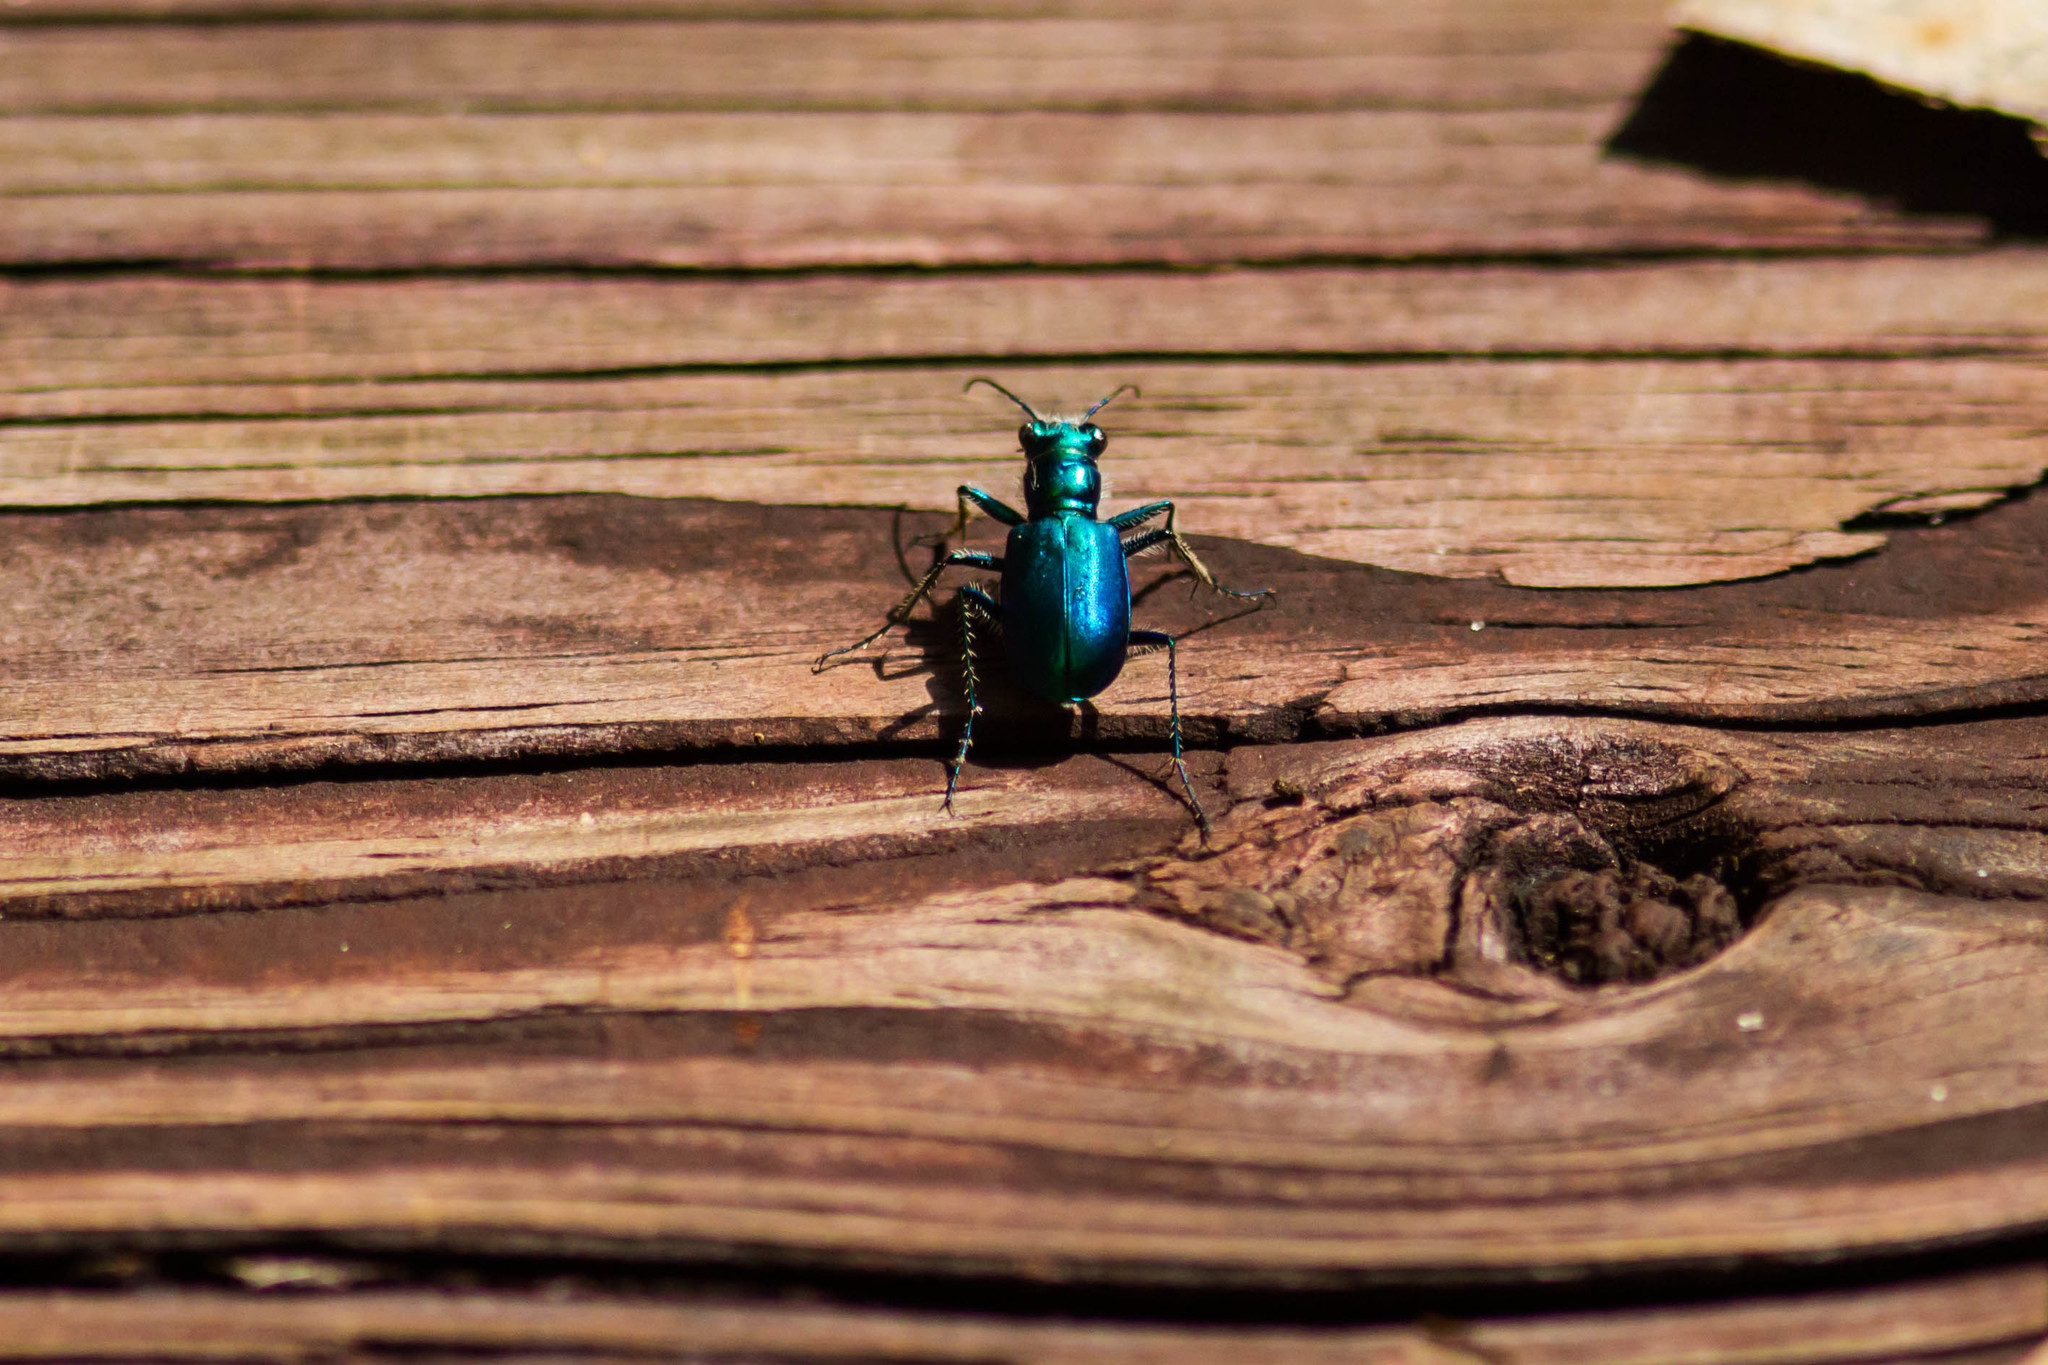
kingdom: Animalia
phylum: Arthropoda
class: Insecta
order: Coleoptera
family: Carabidae
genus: Cicindela
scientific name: Cicindela scutellaris
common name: Festive tiger beetle
